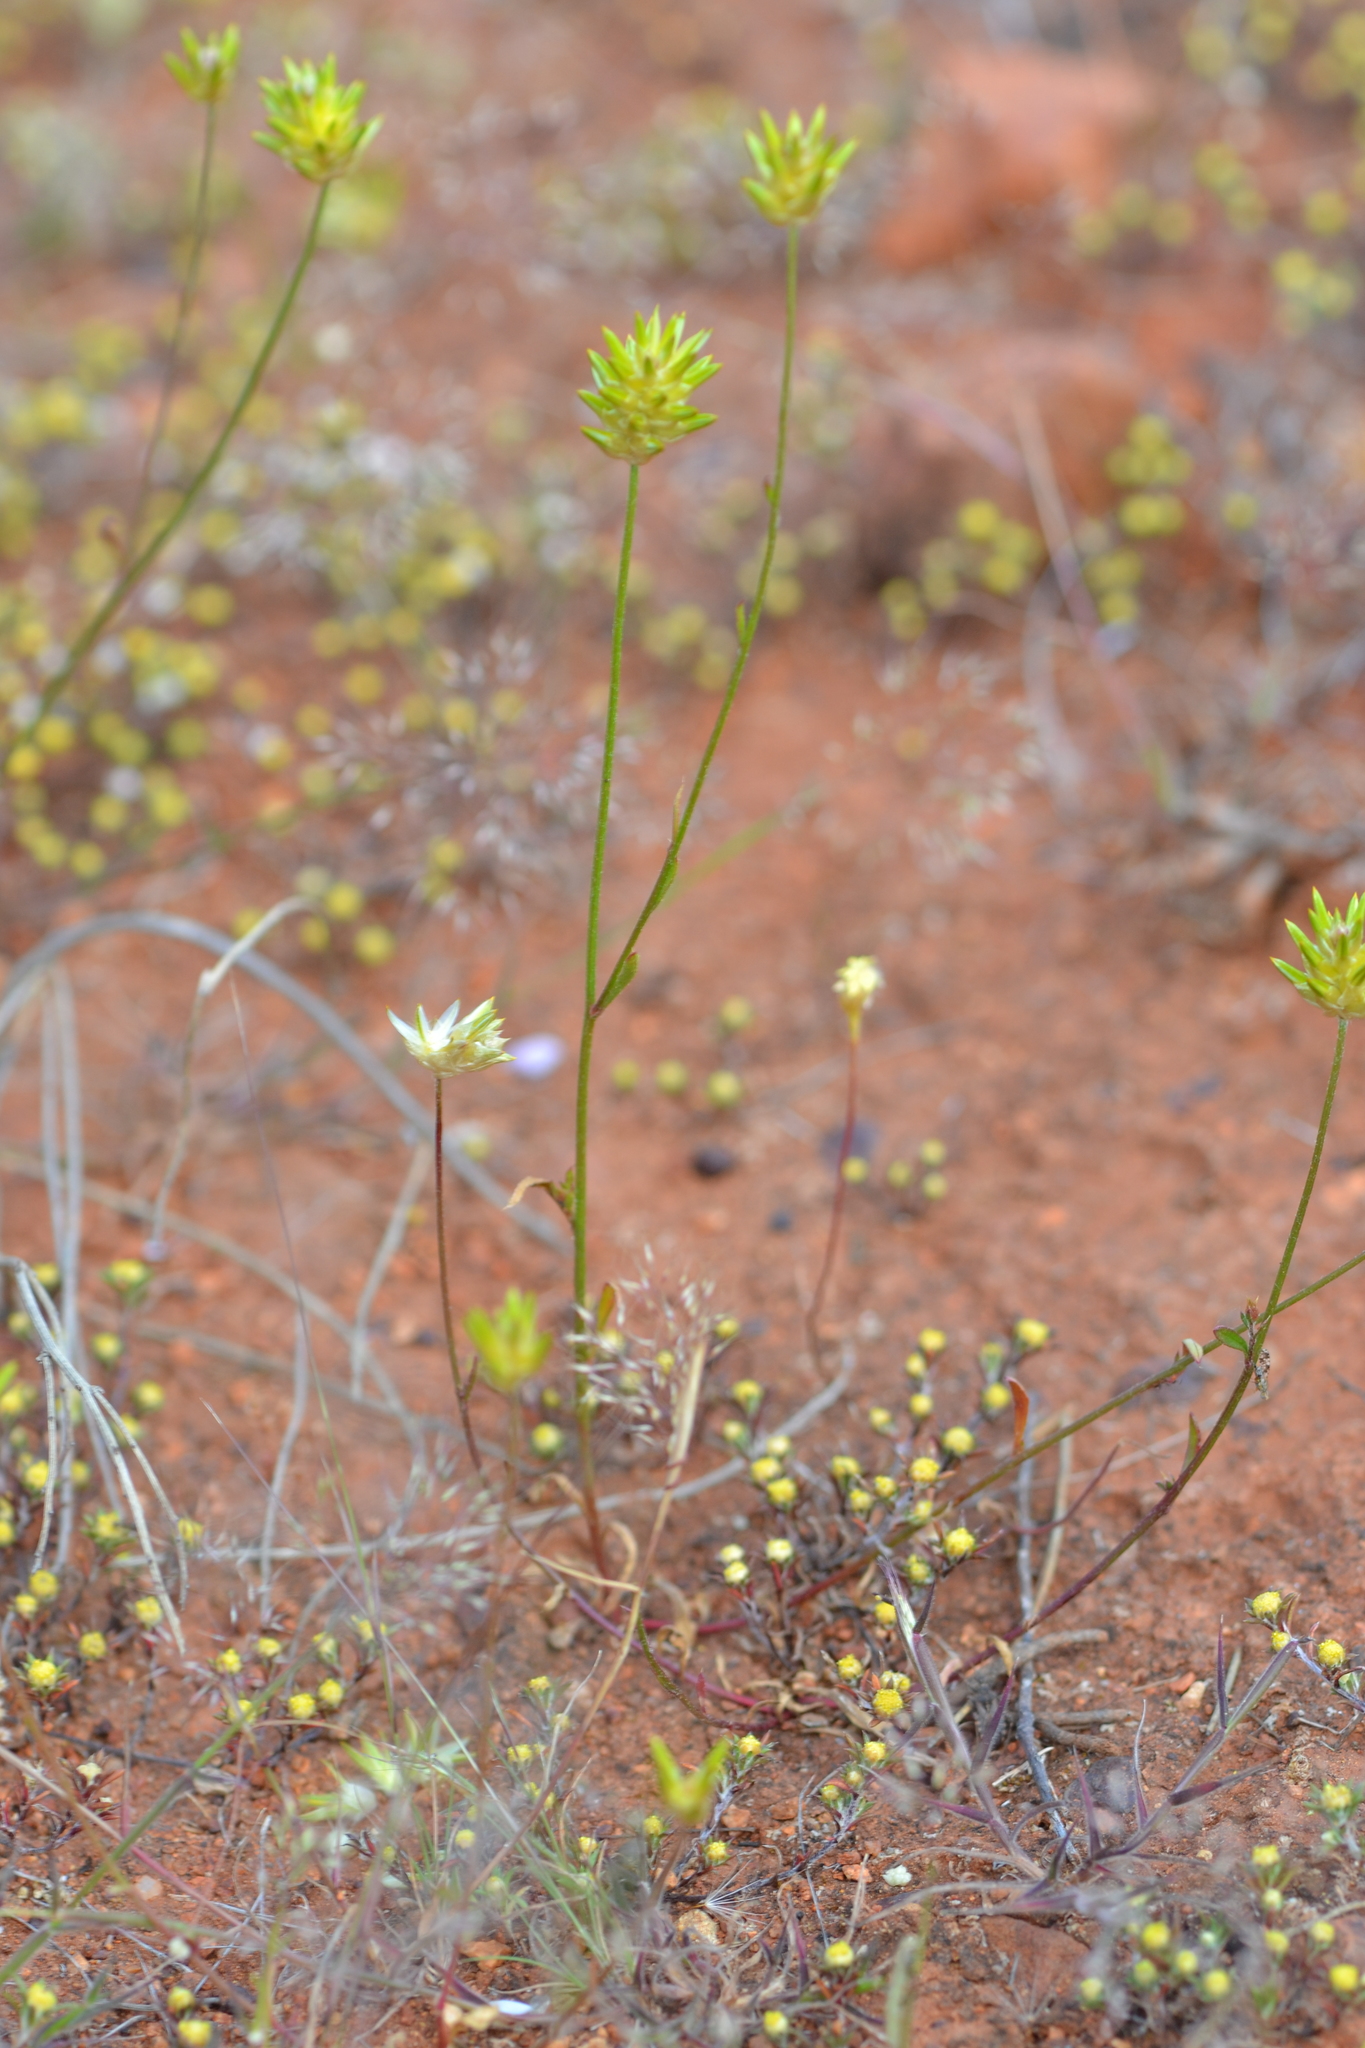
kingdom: Plantae
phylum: Tracheophyta
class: Magnoliopsida
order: Caryophyllales
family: Amaranthaceae
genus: Ptilotus
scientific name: Ptilotus eremita
